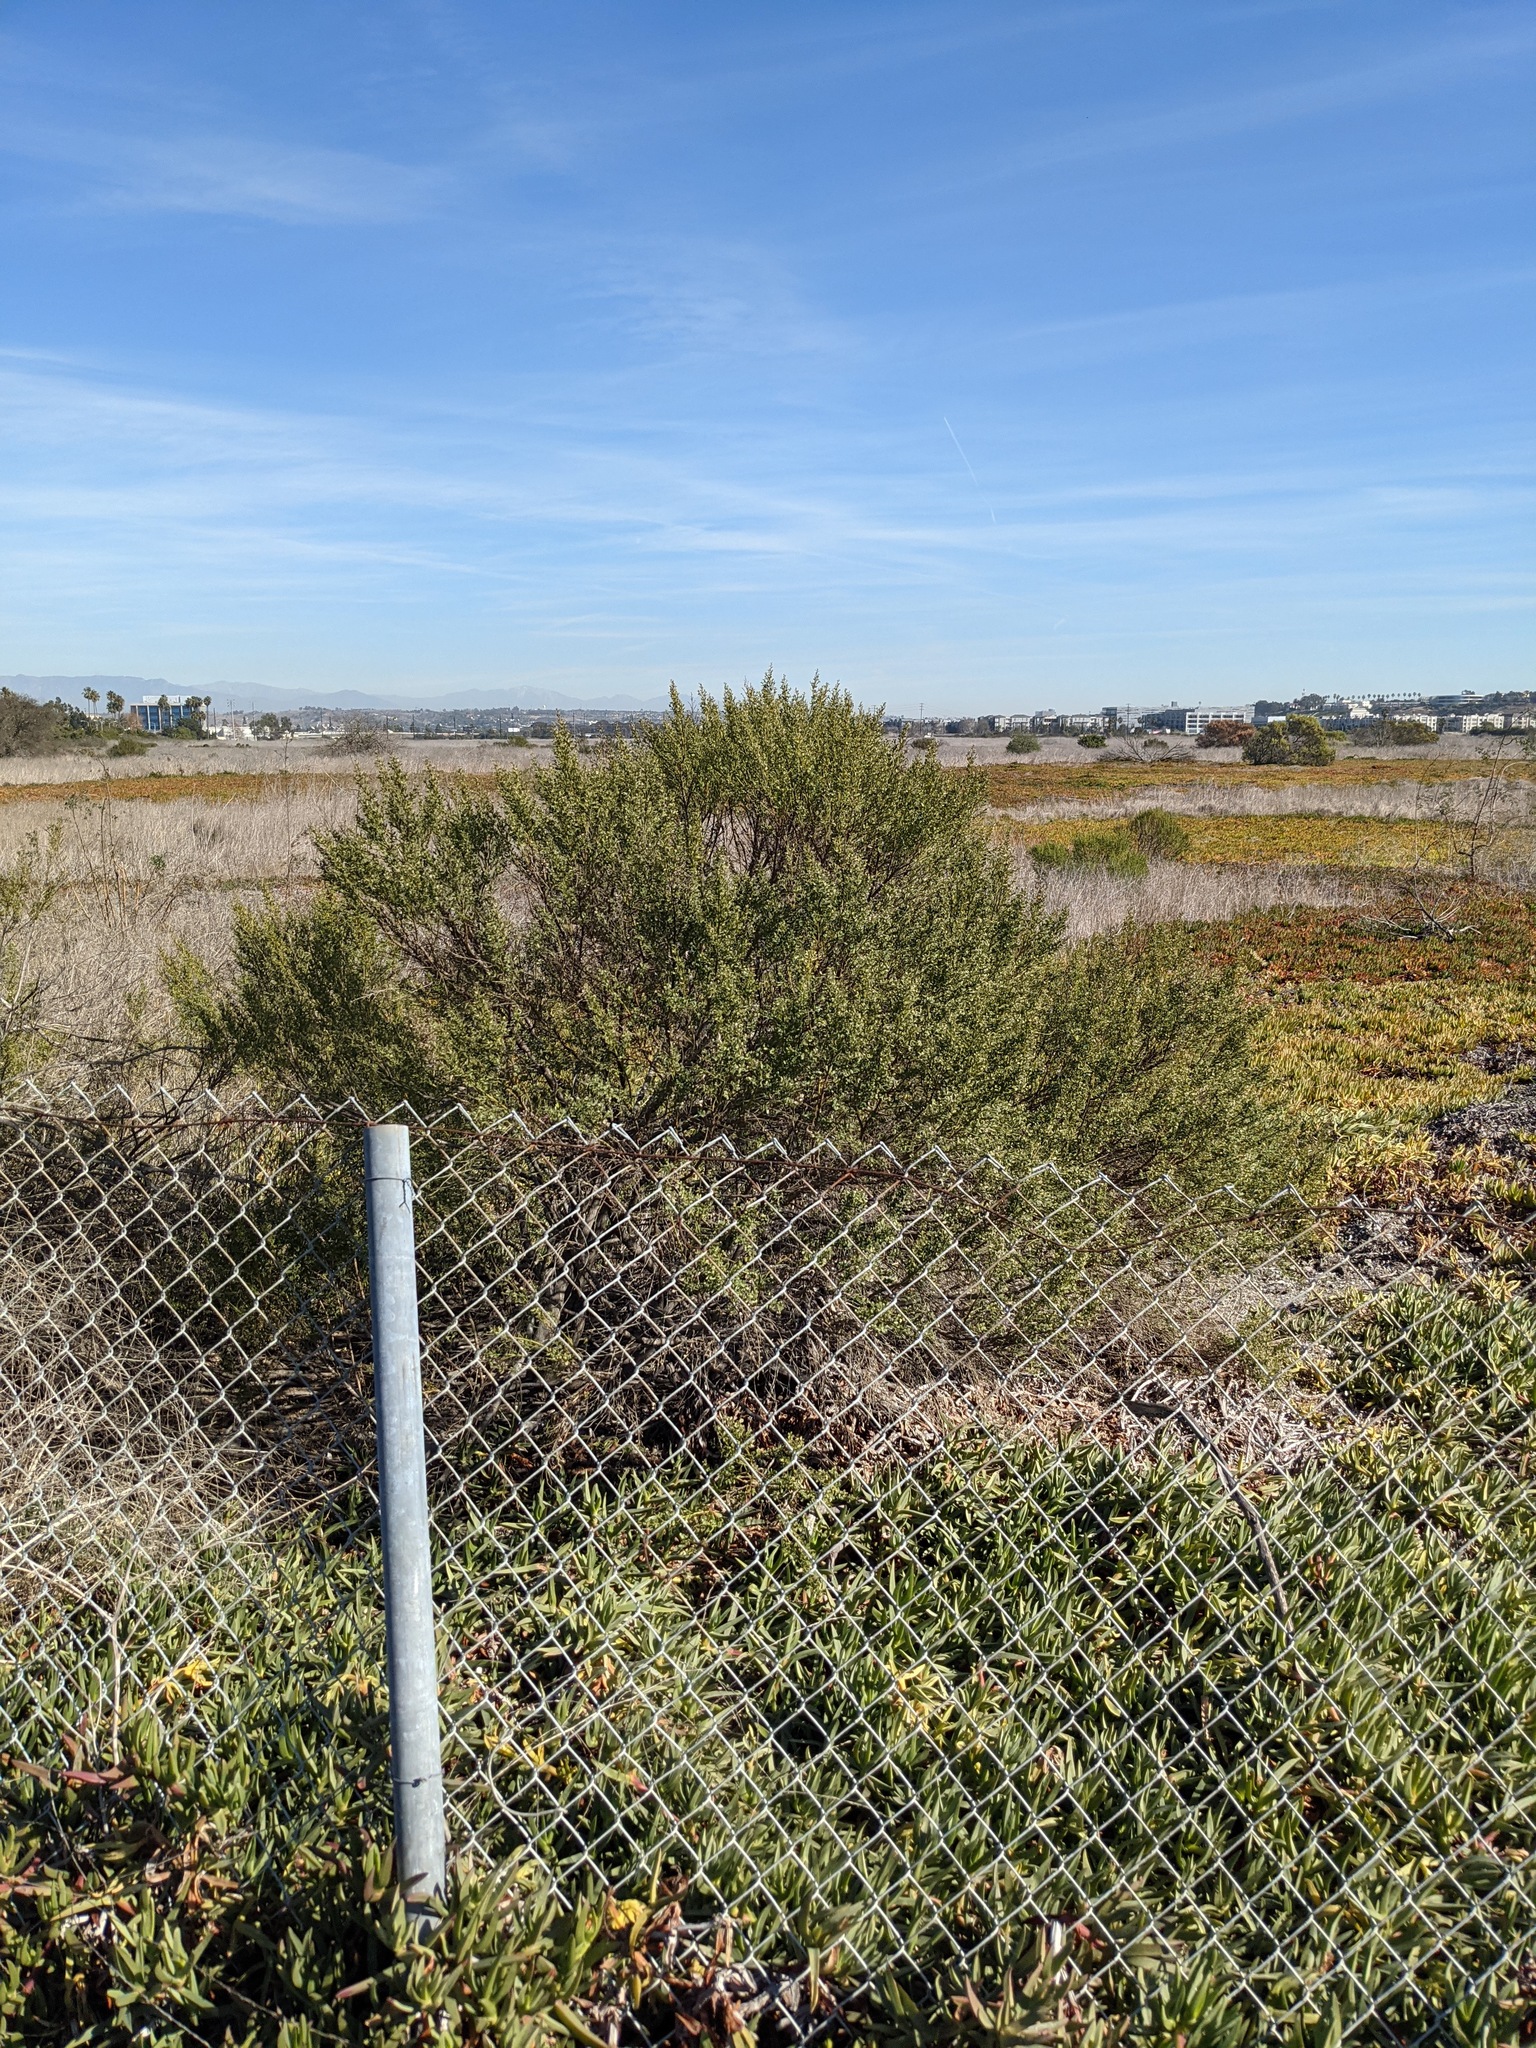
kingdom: Plantae
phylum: Tracheophyta
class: Magnoliopsida
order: Asterales
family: Asteraceae
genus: Baccharis
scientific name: Baccharis pilularis
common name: Coyotebrush
